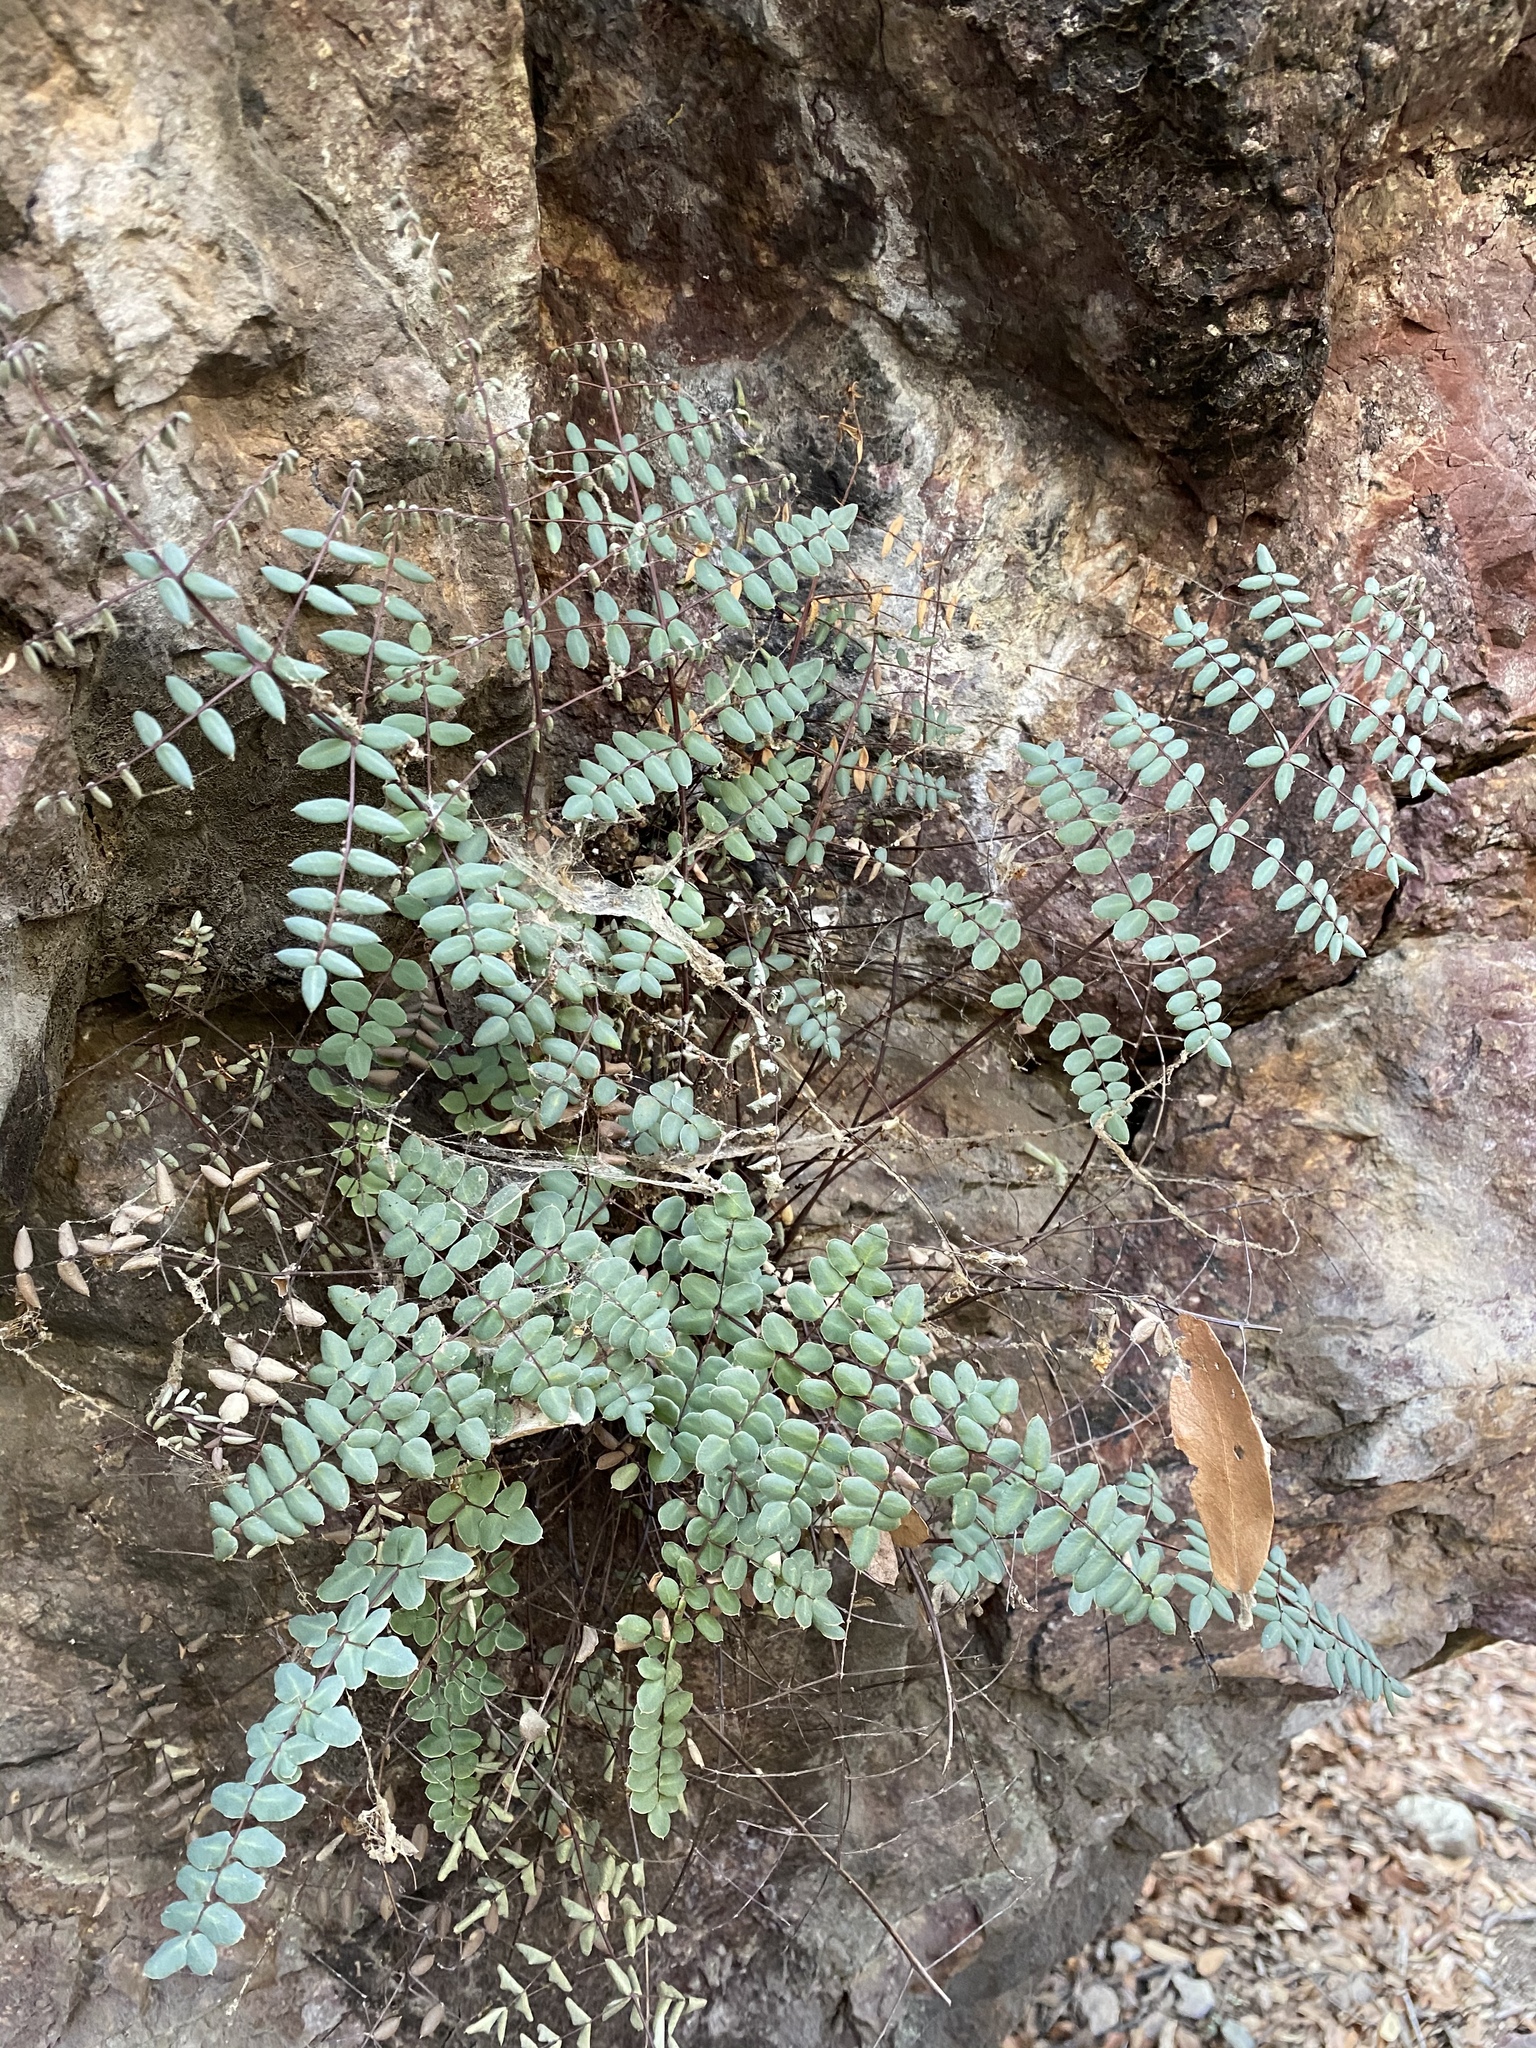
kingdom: Plantae
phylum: Tracheophyta
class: Polypodiopsida
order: Polypodiales
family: Pteridaceae
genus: Pellaea
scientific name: Pellaea truncata
